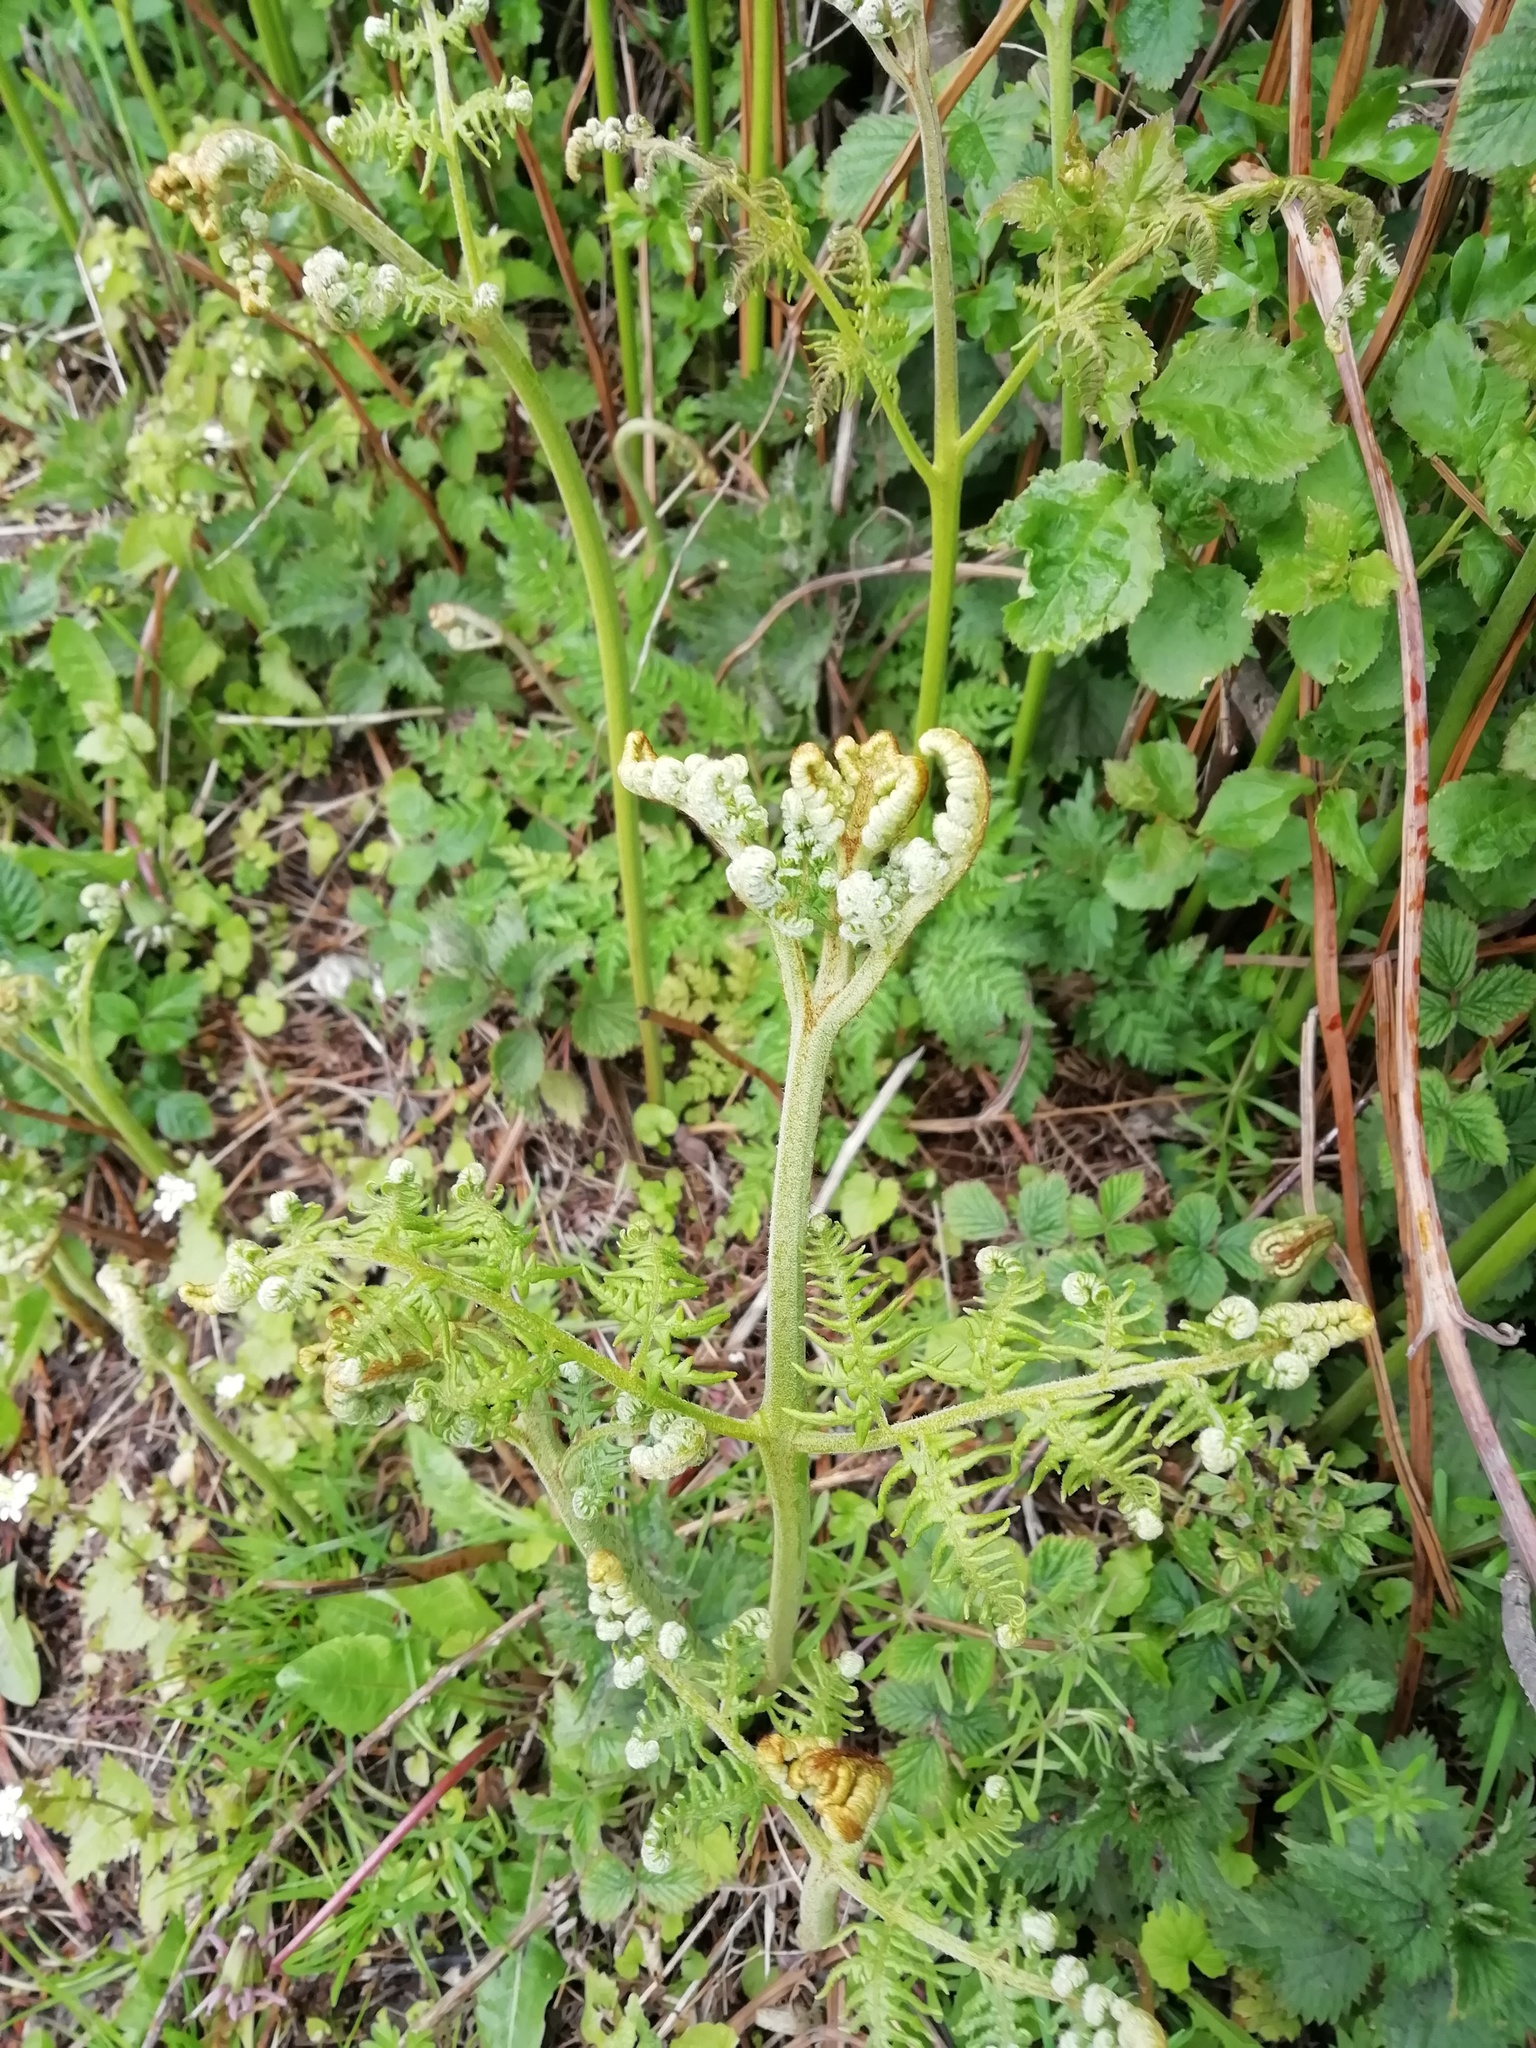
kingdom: Plantae
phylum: Tracheophyta
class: Polypodiopsida
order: Polypodiales
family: Dennstaedtiaceae
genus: Pteridium
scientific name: Pteridium aquilinum
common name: Bracken
